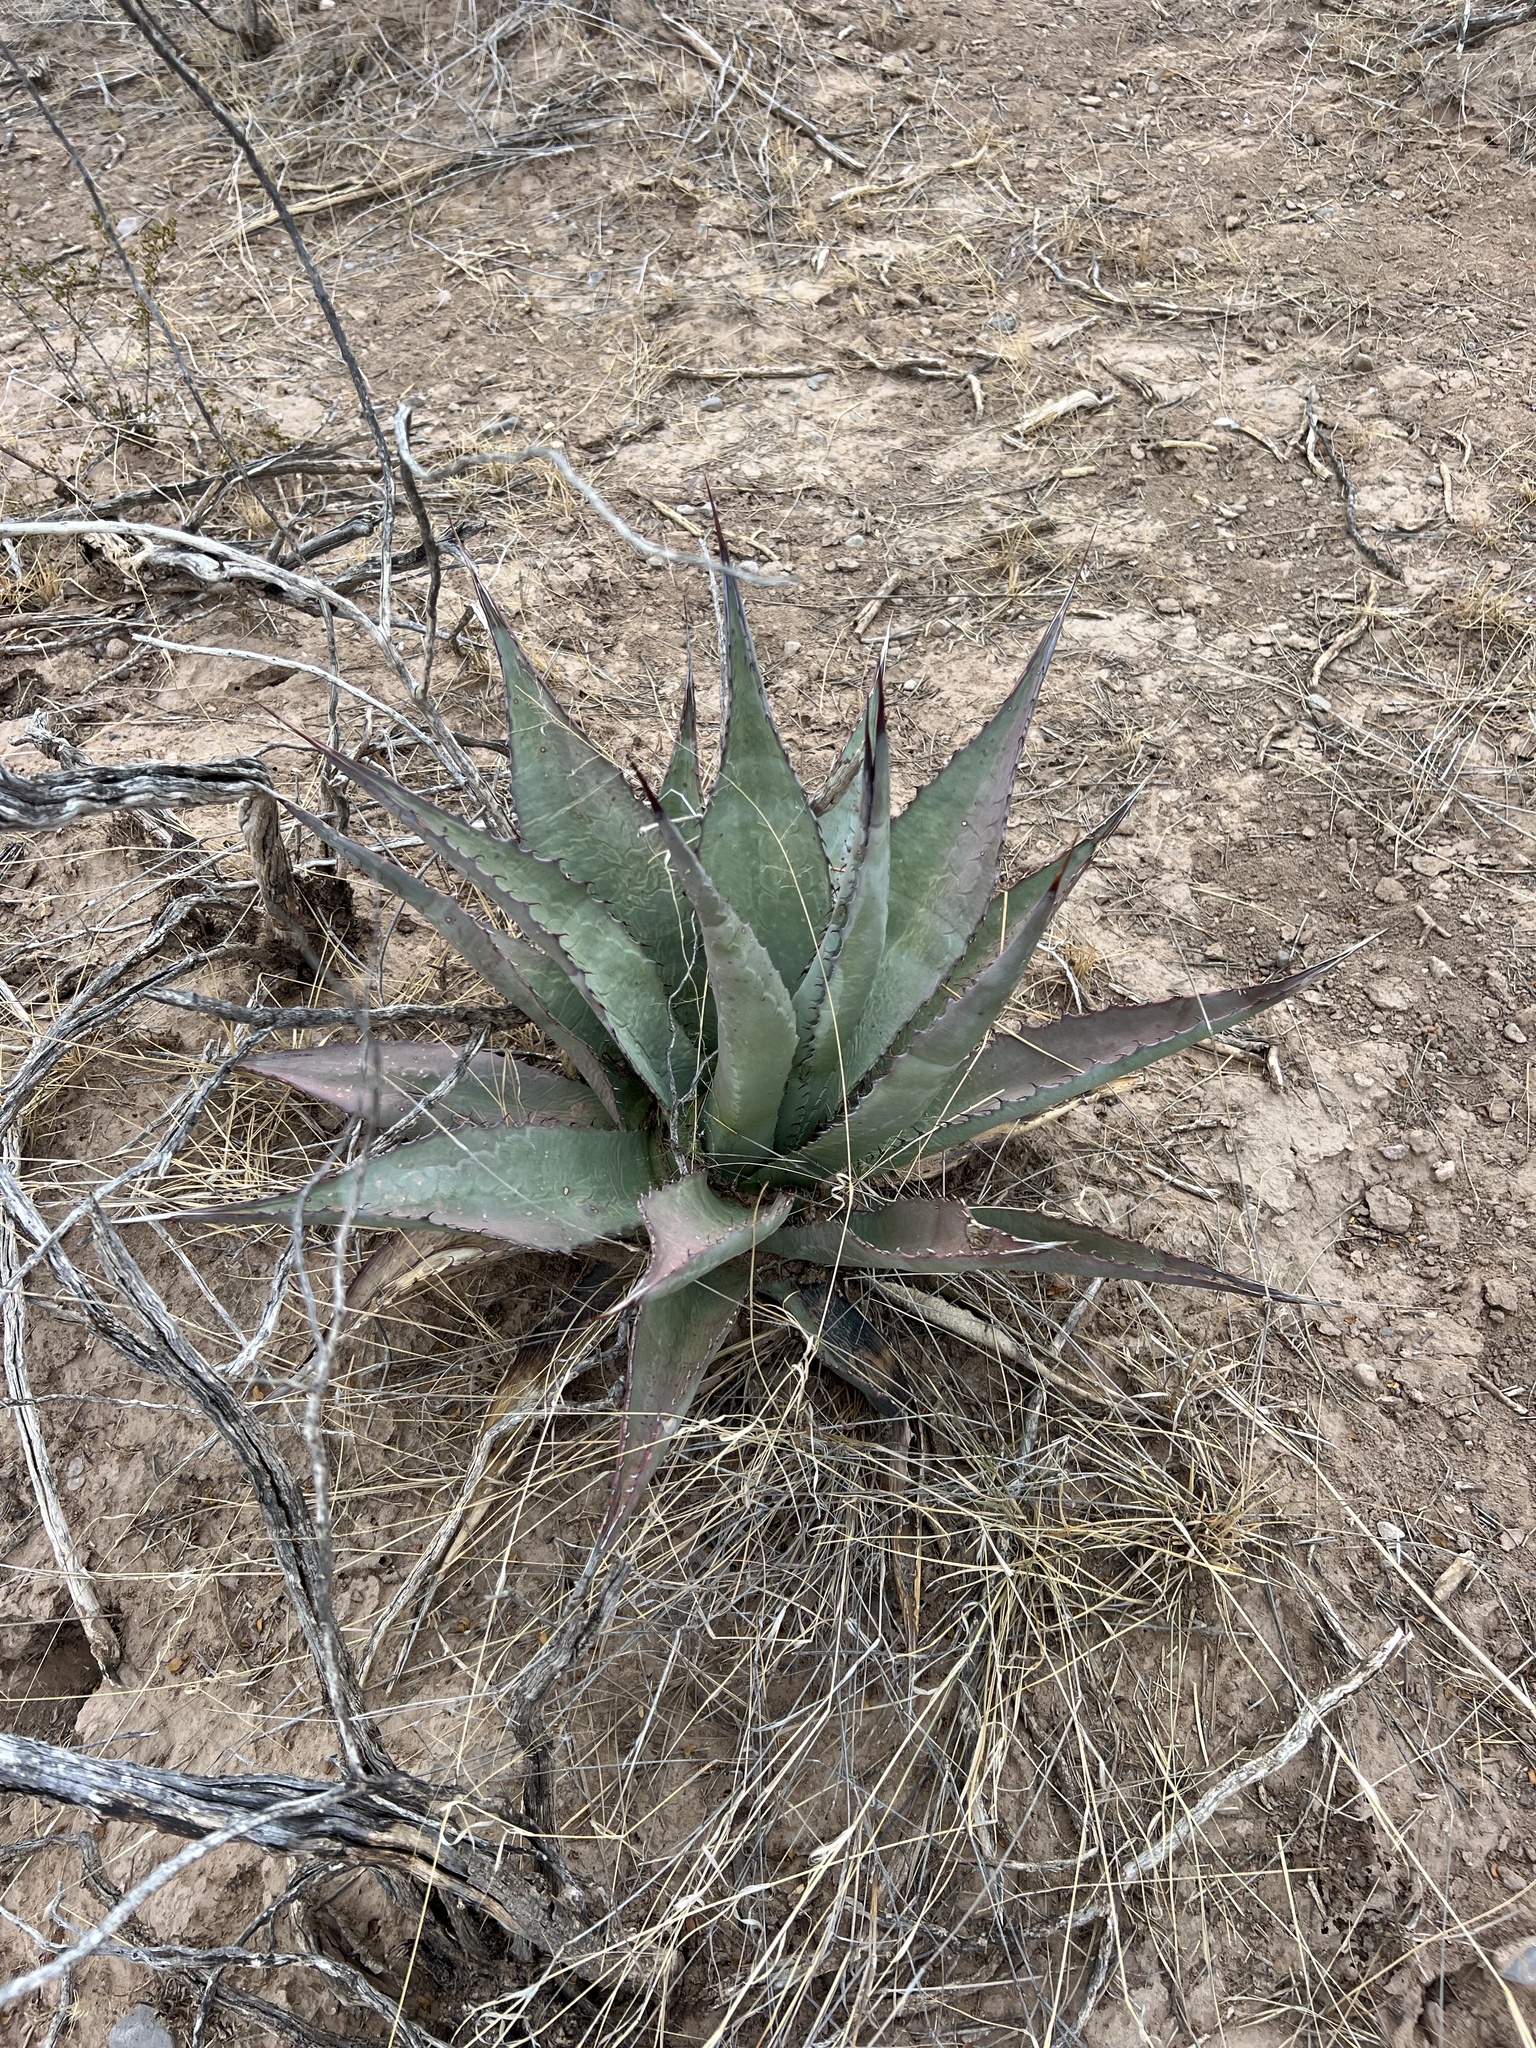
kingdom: Plantae
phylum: Tracheophyta
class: Liliopsida
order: Asparagales
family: Asparagaceae
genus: Agave
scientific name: Agave palmeri
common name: Palmer agave
